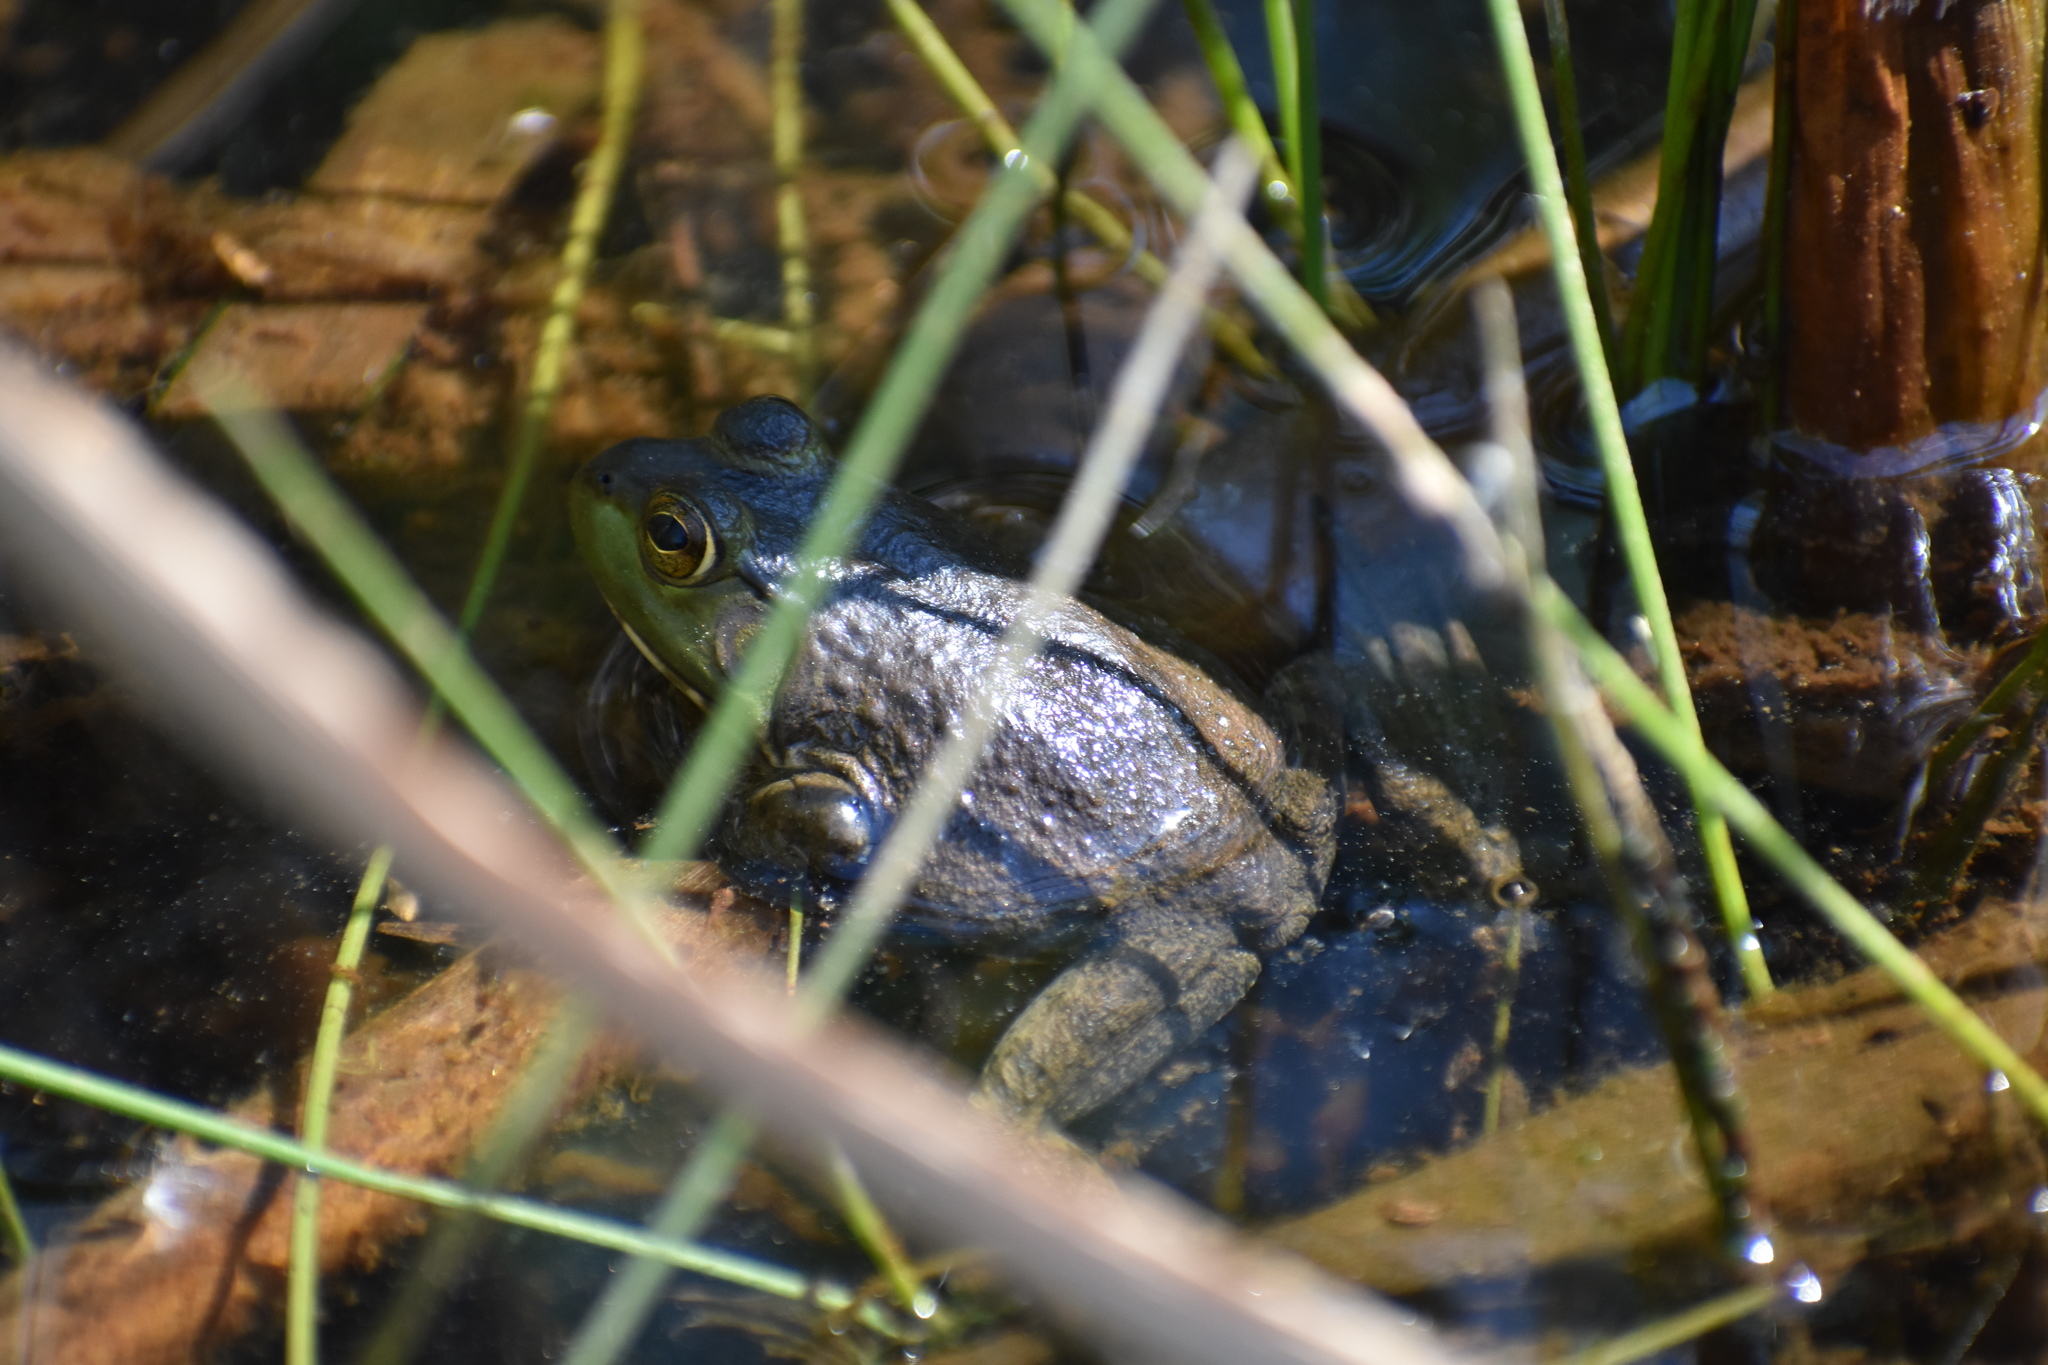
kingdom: Animalia
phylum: Chordata
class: Amphibia
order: Anura
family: Ranidae
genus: Lithobates
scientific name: Lithobates catesbeianus
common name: American bullfrog
